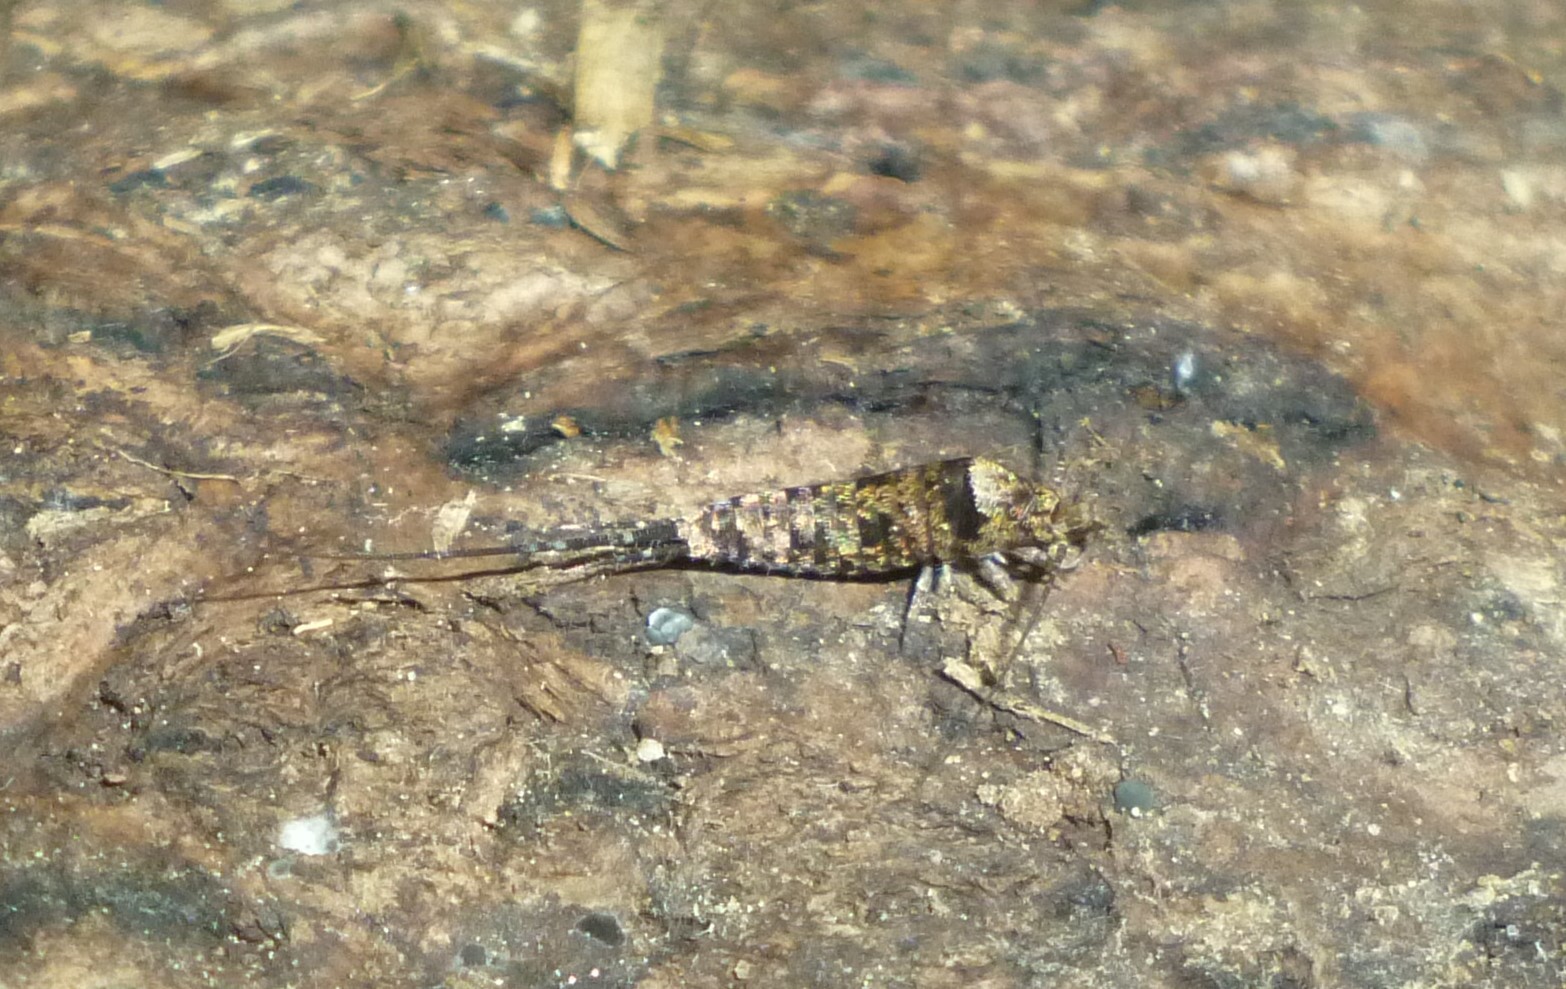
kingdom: Animalia
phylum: Arthropoda
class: Insecta
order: Archaeognatha
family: Machilidae
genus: Trigoniophthalmus
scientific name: Trigoniophthalmus alternatus
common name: Jumping bristletail
